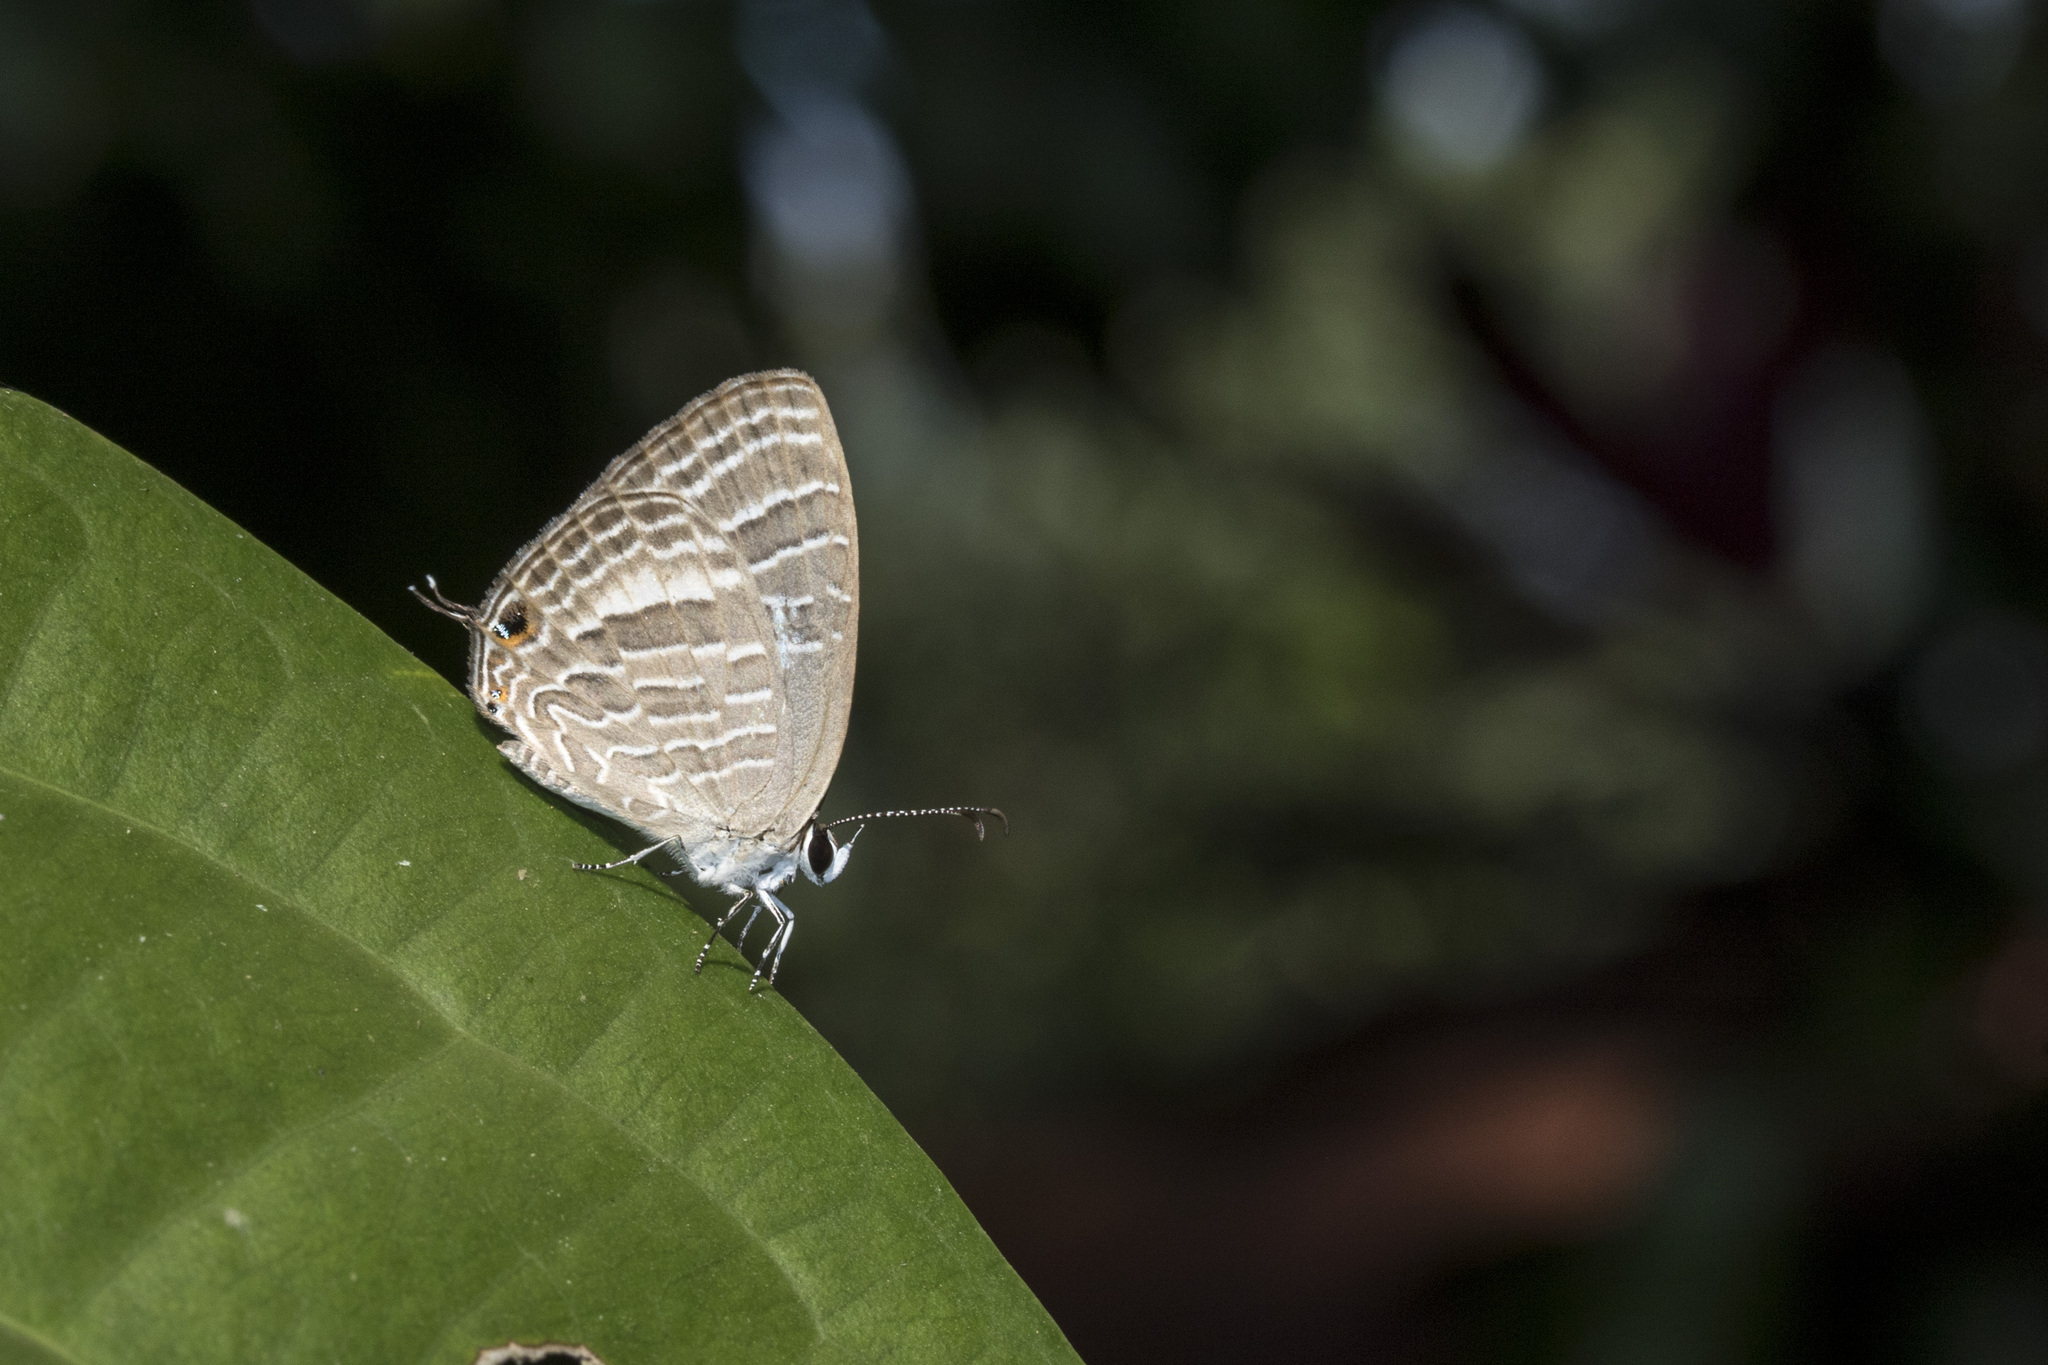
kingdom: Animalia
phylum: Arthropoda
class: Insecta
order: Lepidoptera
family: Lycaenidae
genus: Jamides
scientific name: Jamides celeno
